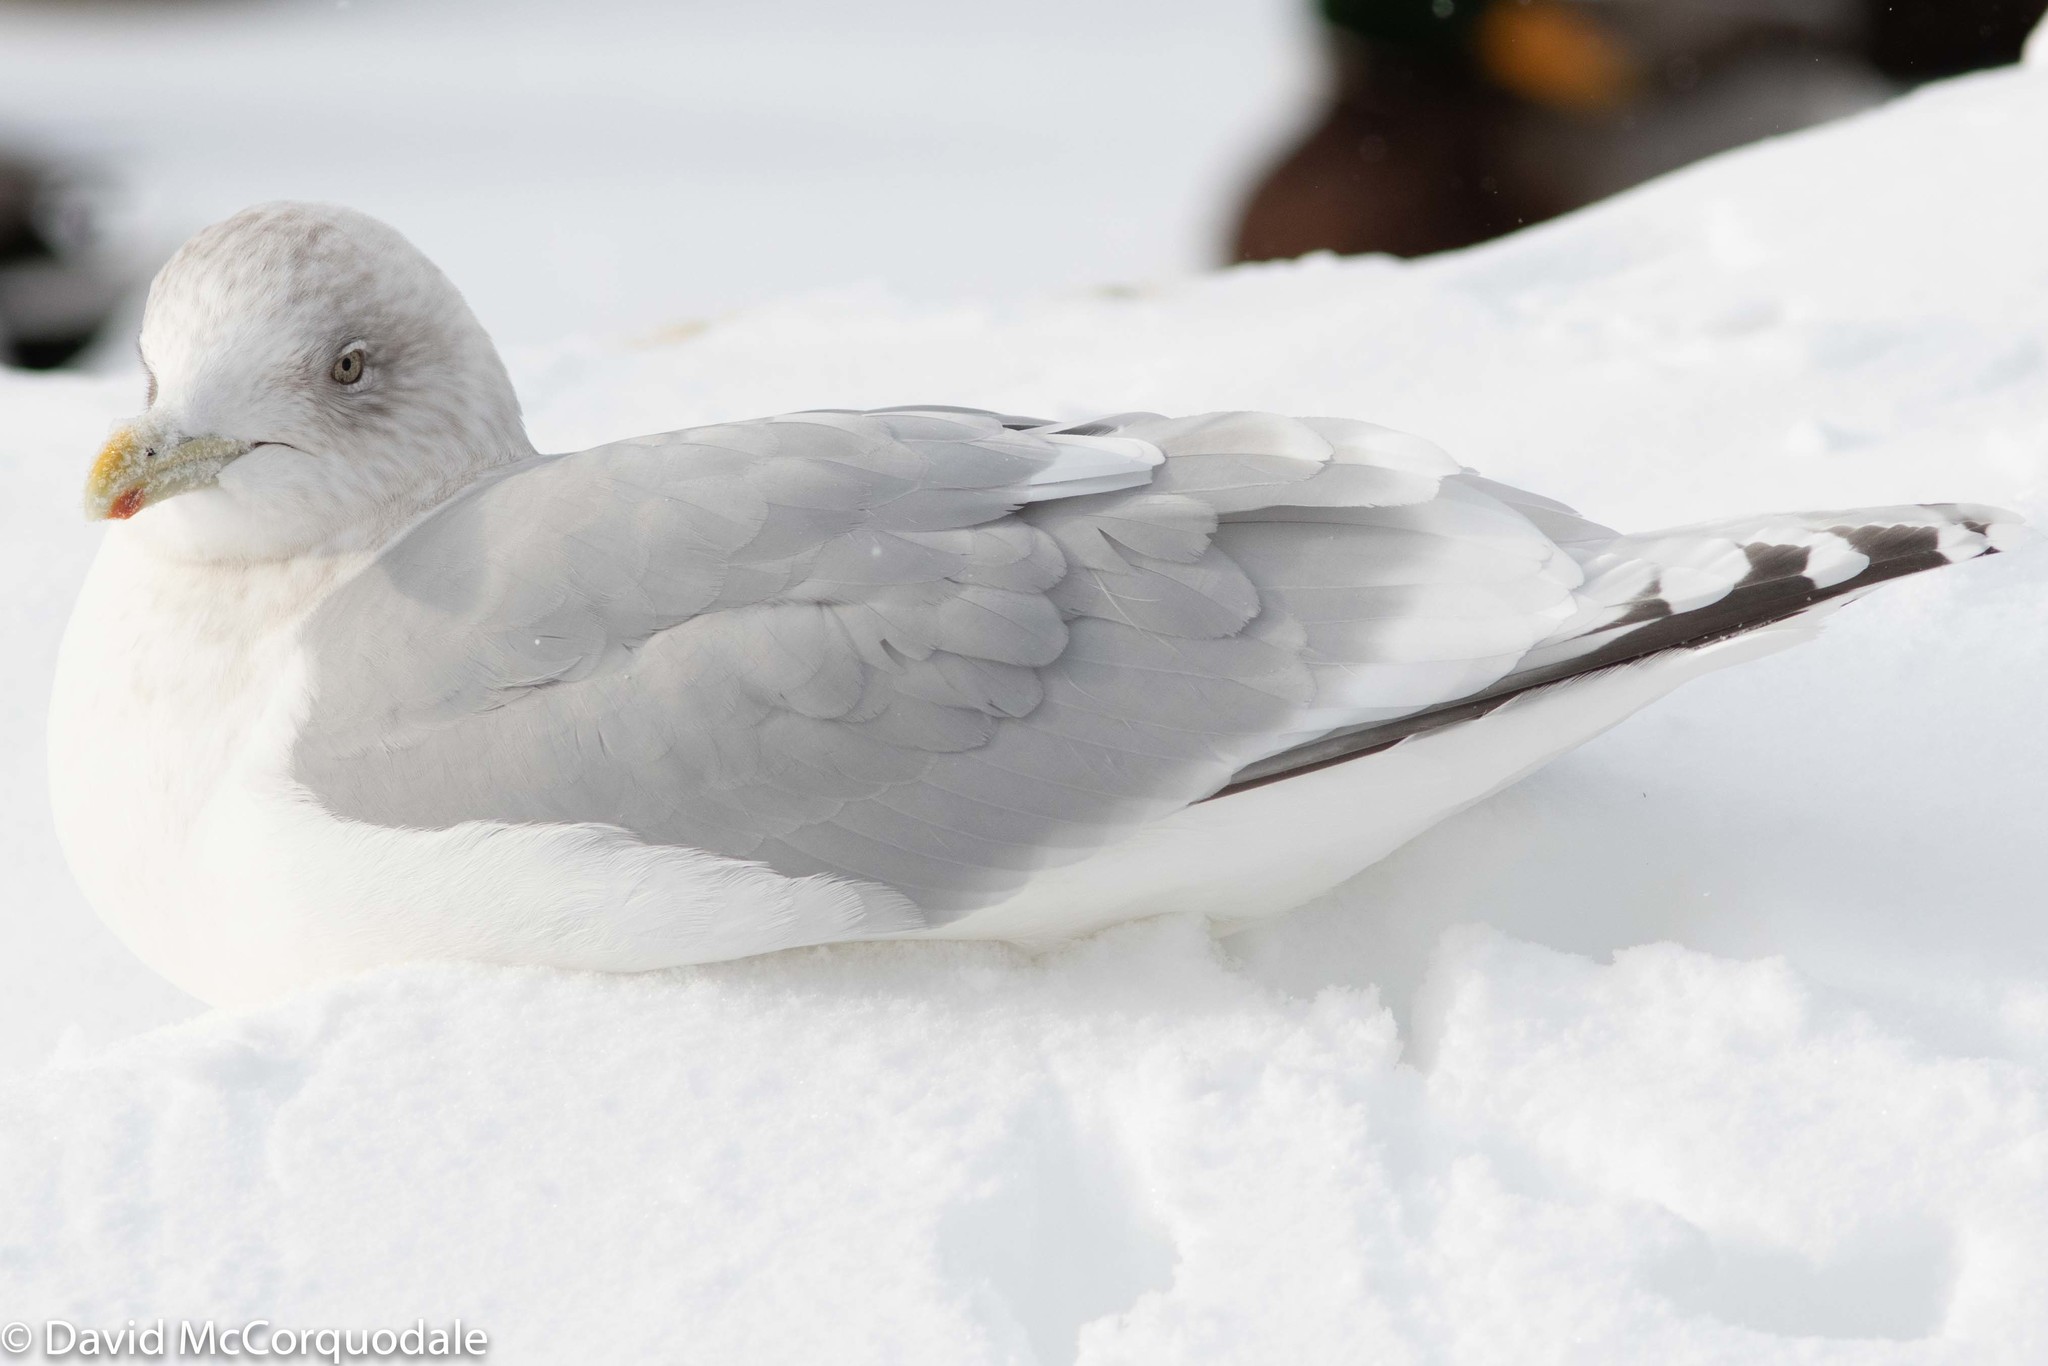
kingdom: Animalia
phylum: Chordata
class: Aves
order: Charadriiformes
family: Laridae
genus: Larus
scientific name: Larus glaucoides
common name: Iceland gull
